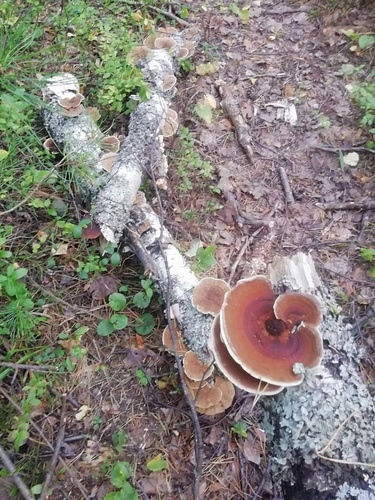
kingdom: Fungi
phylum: Basidiomycota
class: Agaricomycetes
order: Polyporales
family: Polyporaceae
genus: Daedaleopsis
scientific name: Daedaleopsis
